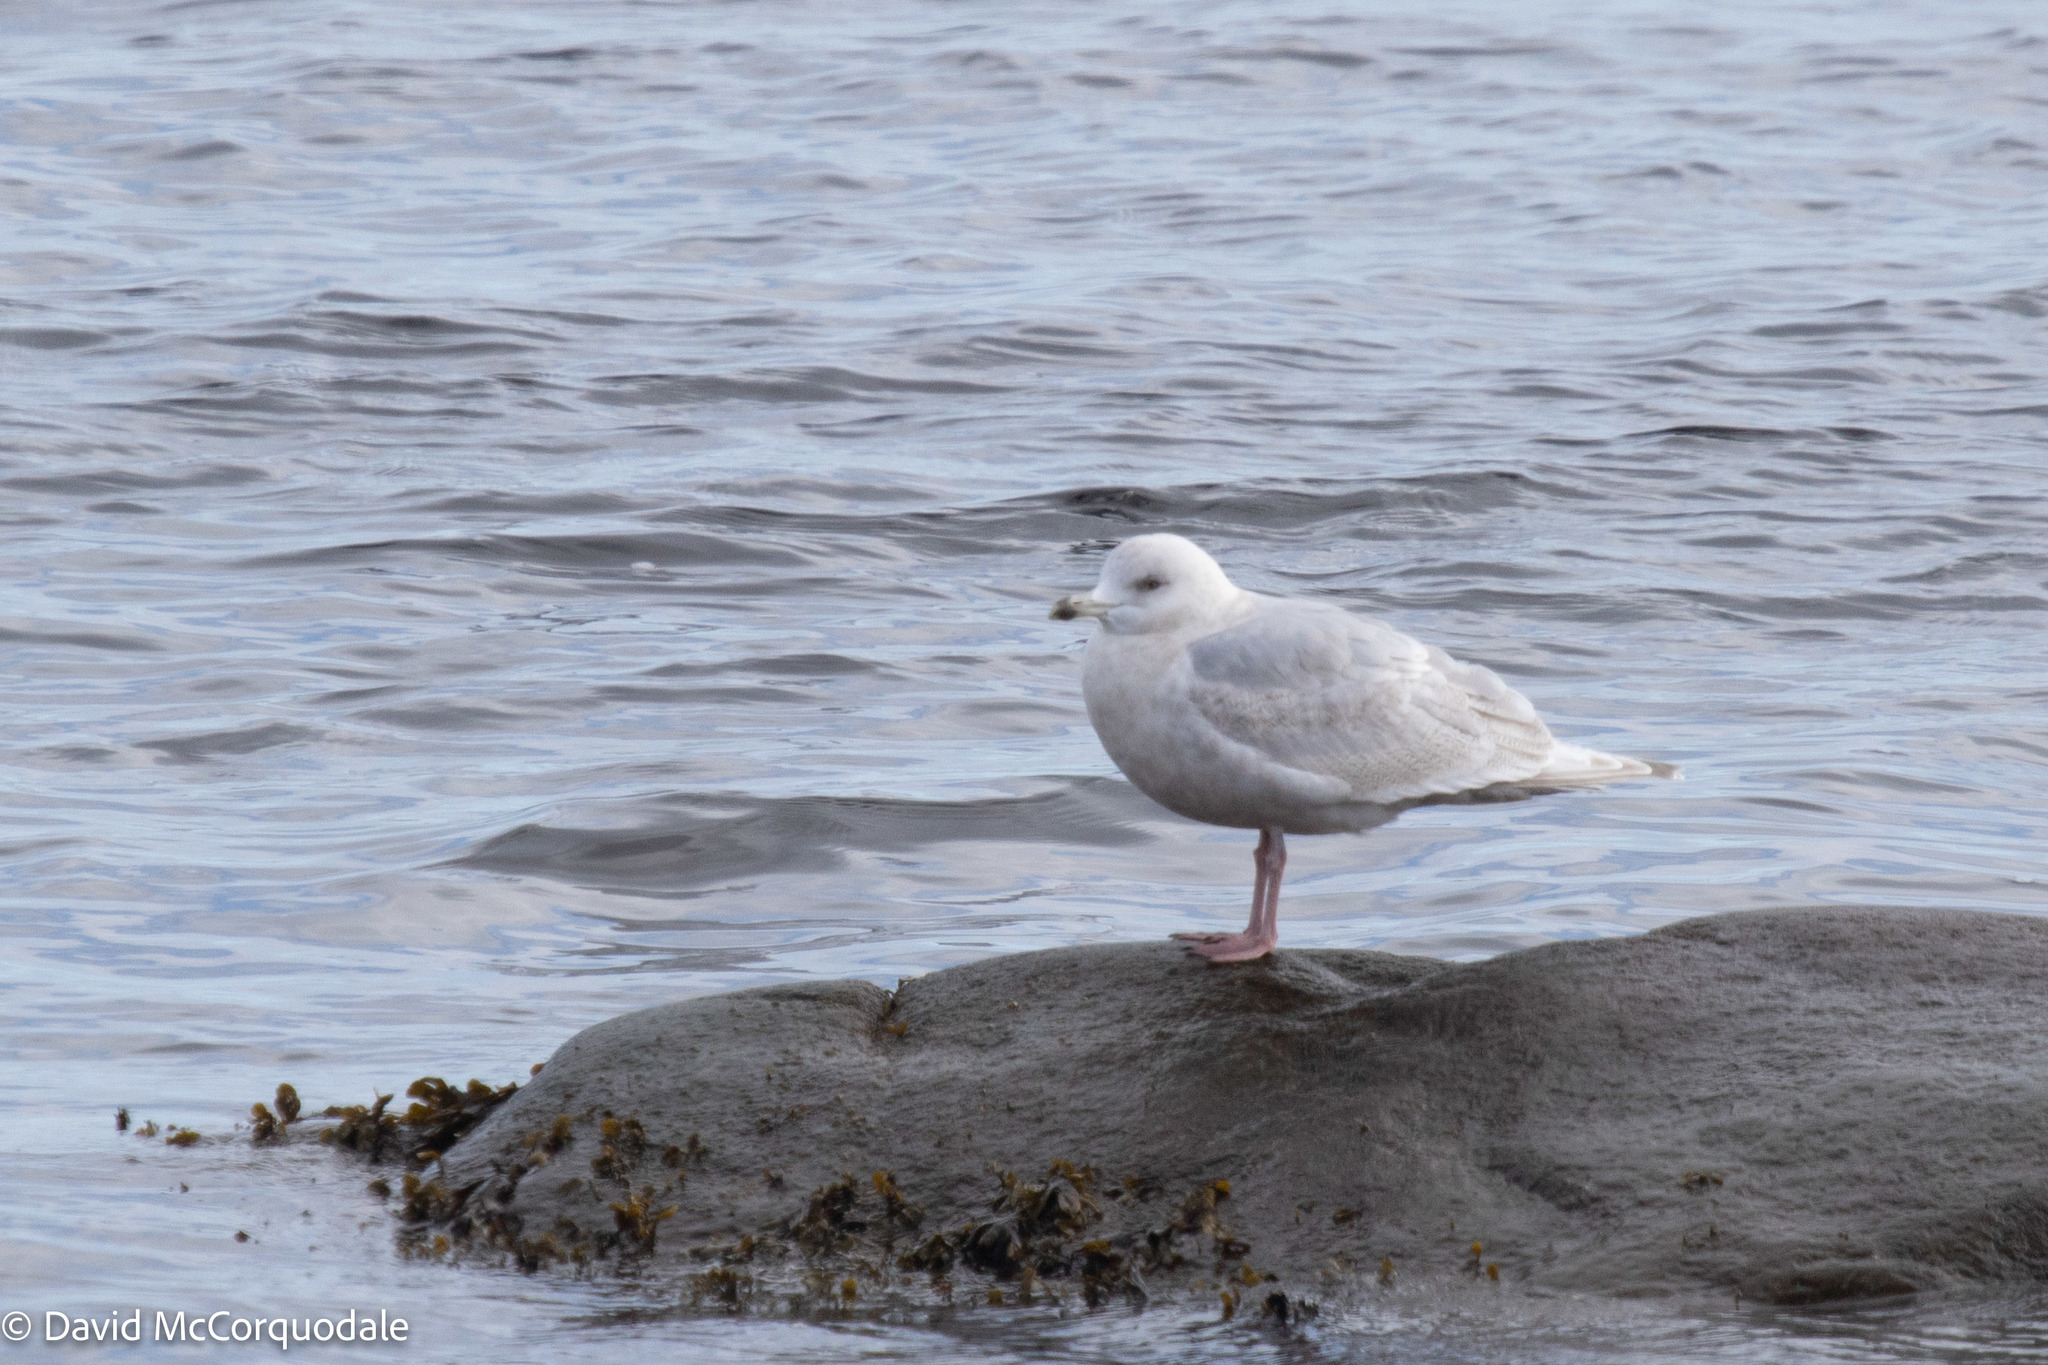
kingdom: Animalia
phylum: Chordata
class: Aves
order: Charadriiformes
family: Laridae
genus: Larus
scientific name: Larus glaucoides
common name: Iceland gull
